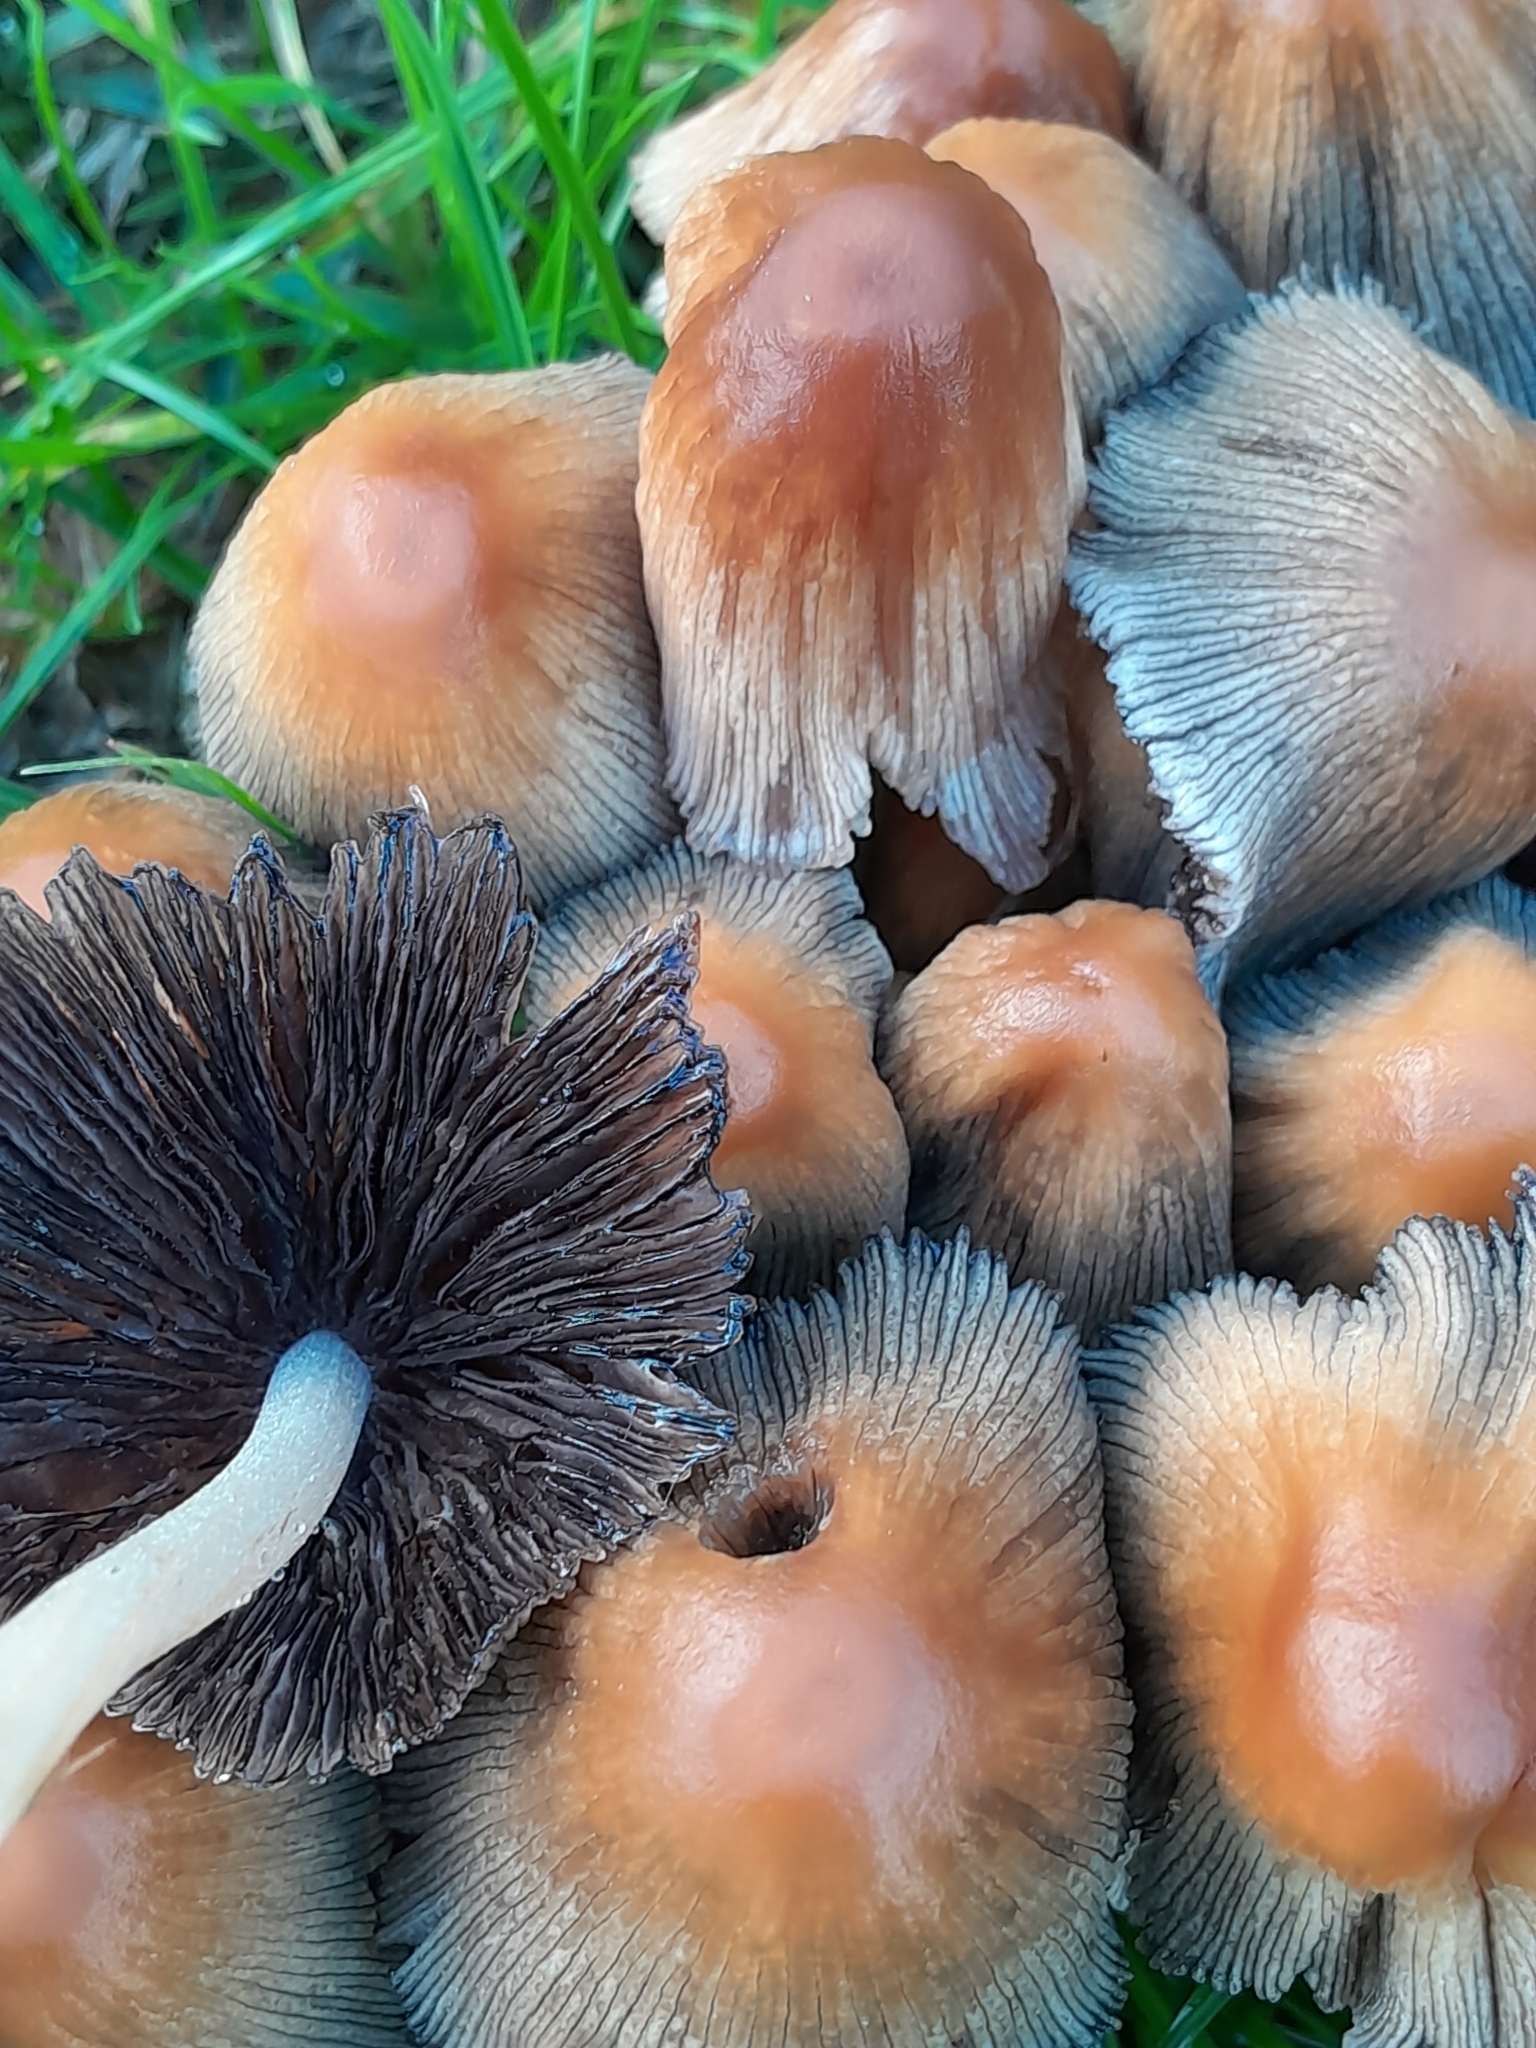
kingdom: Fungi
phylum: Basidiomycota
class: Agaricomycetes
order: Agaricales
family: Psathyrellaceae
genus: Coprinellus
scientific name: Coprinellus micaceus
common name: Glistening ink-cap
